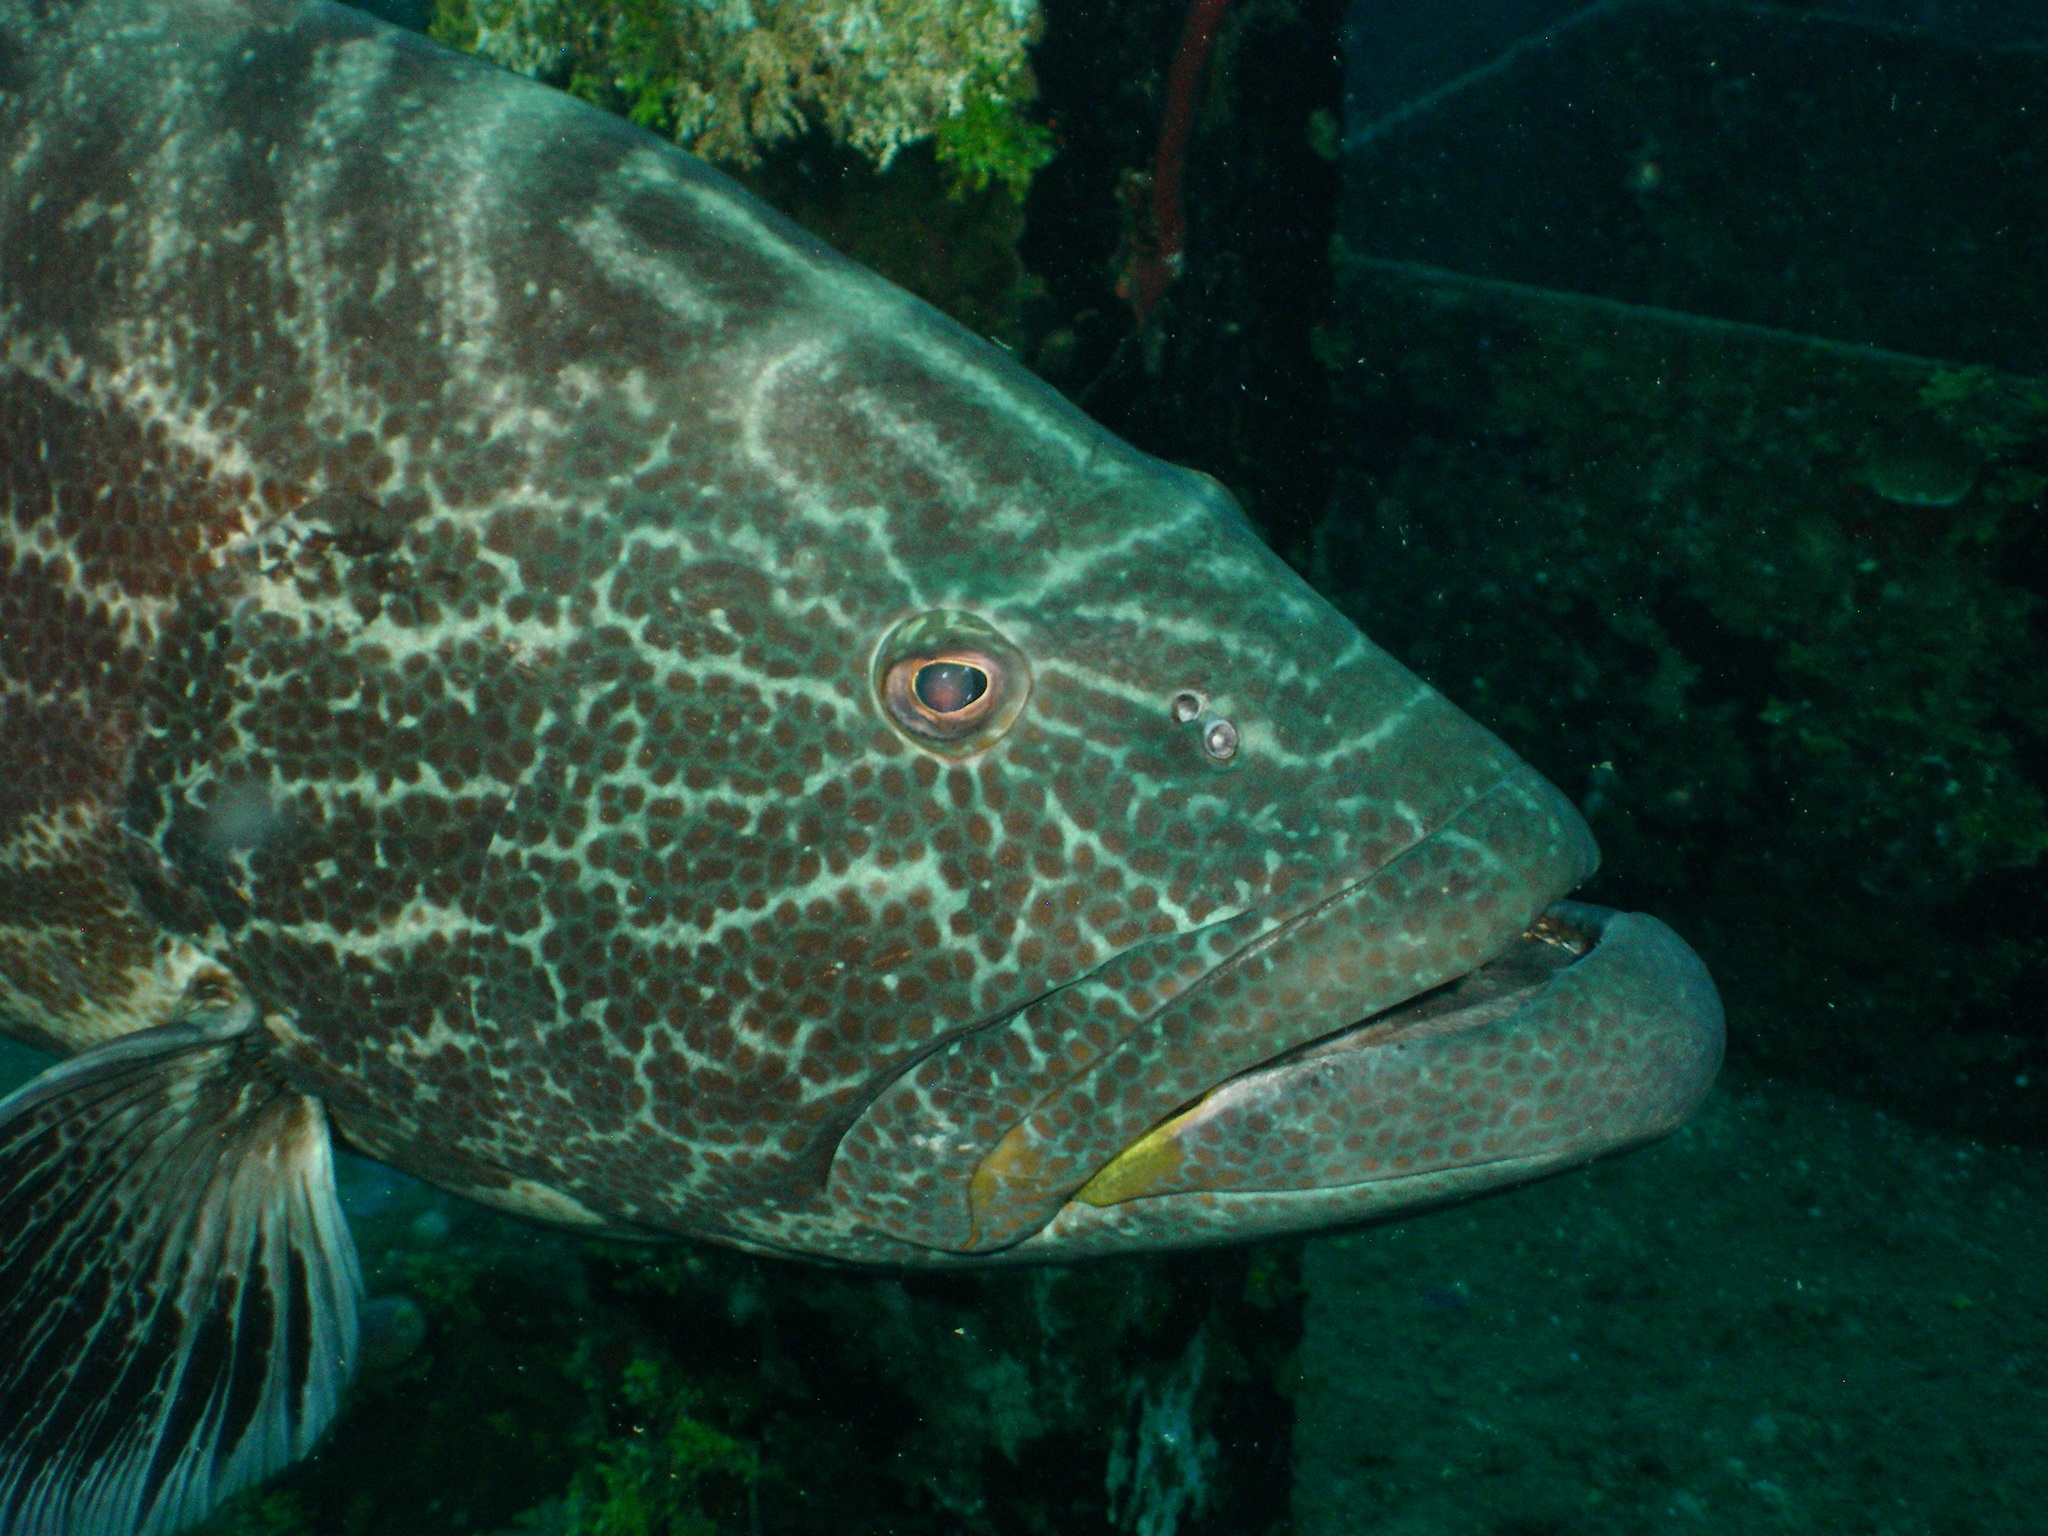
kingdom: Animalia
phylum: Chordata
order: Perciformes
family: Serranidae
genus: Mycteroperca
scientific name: Mycteroperca bonaci
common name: Black grouper
